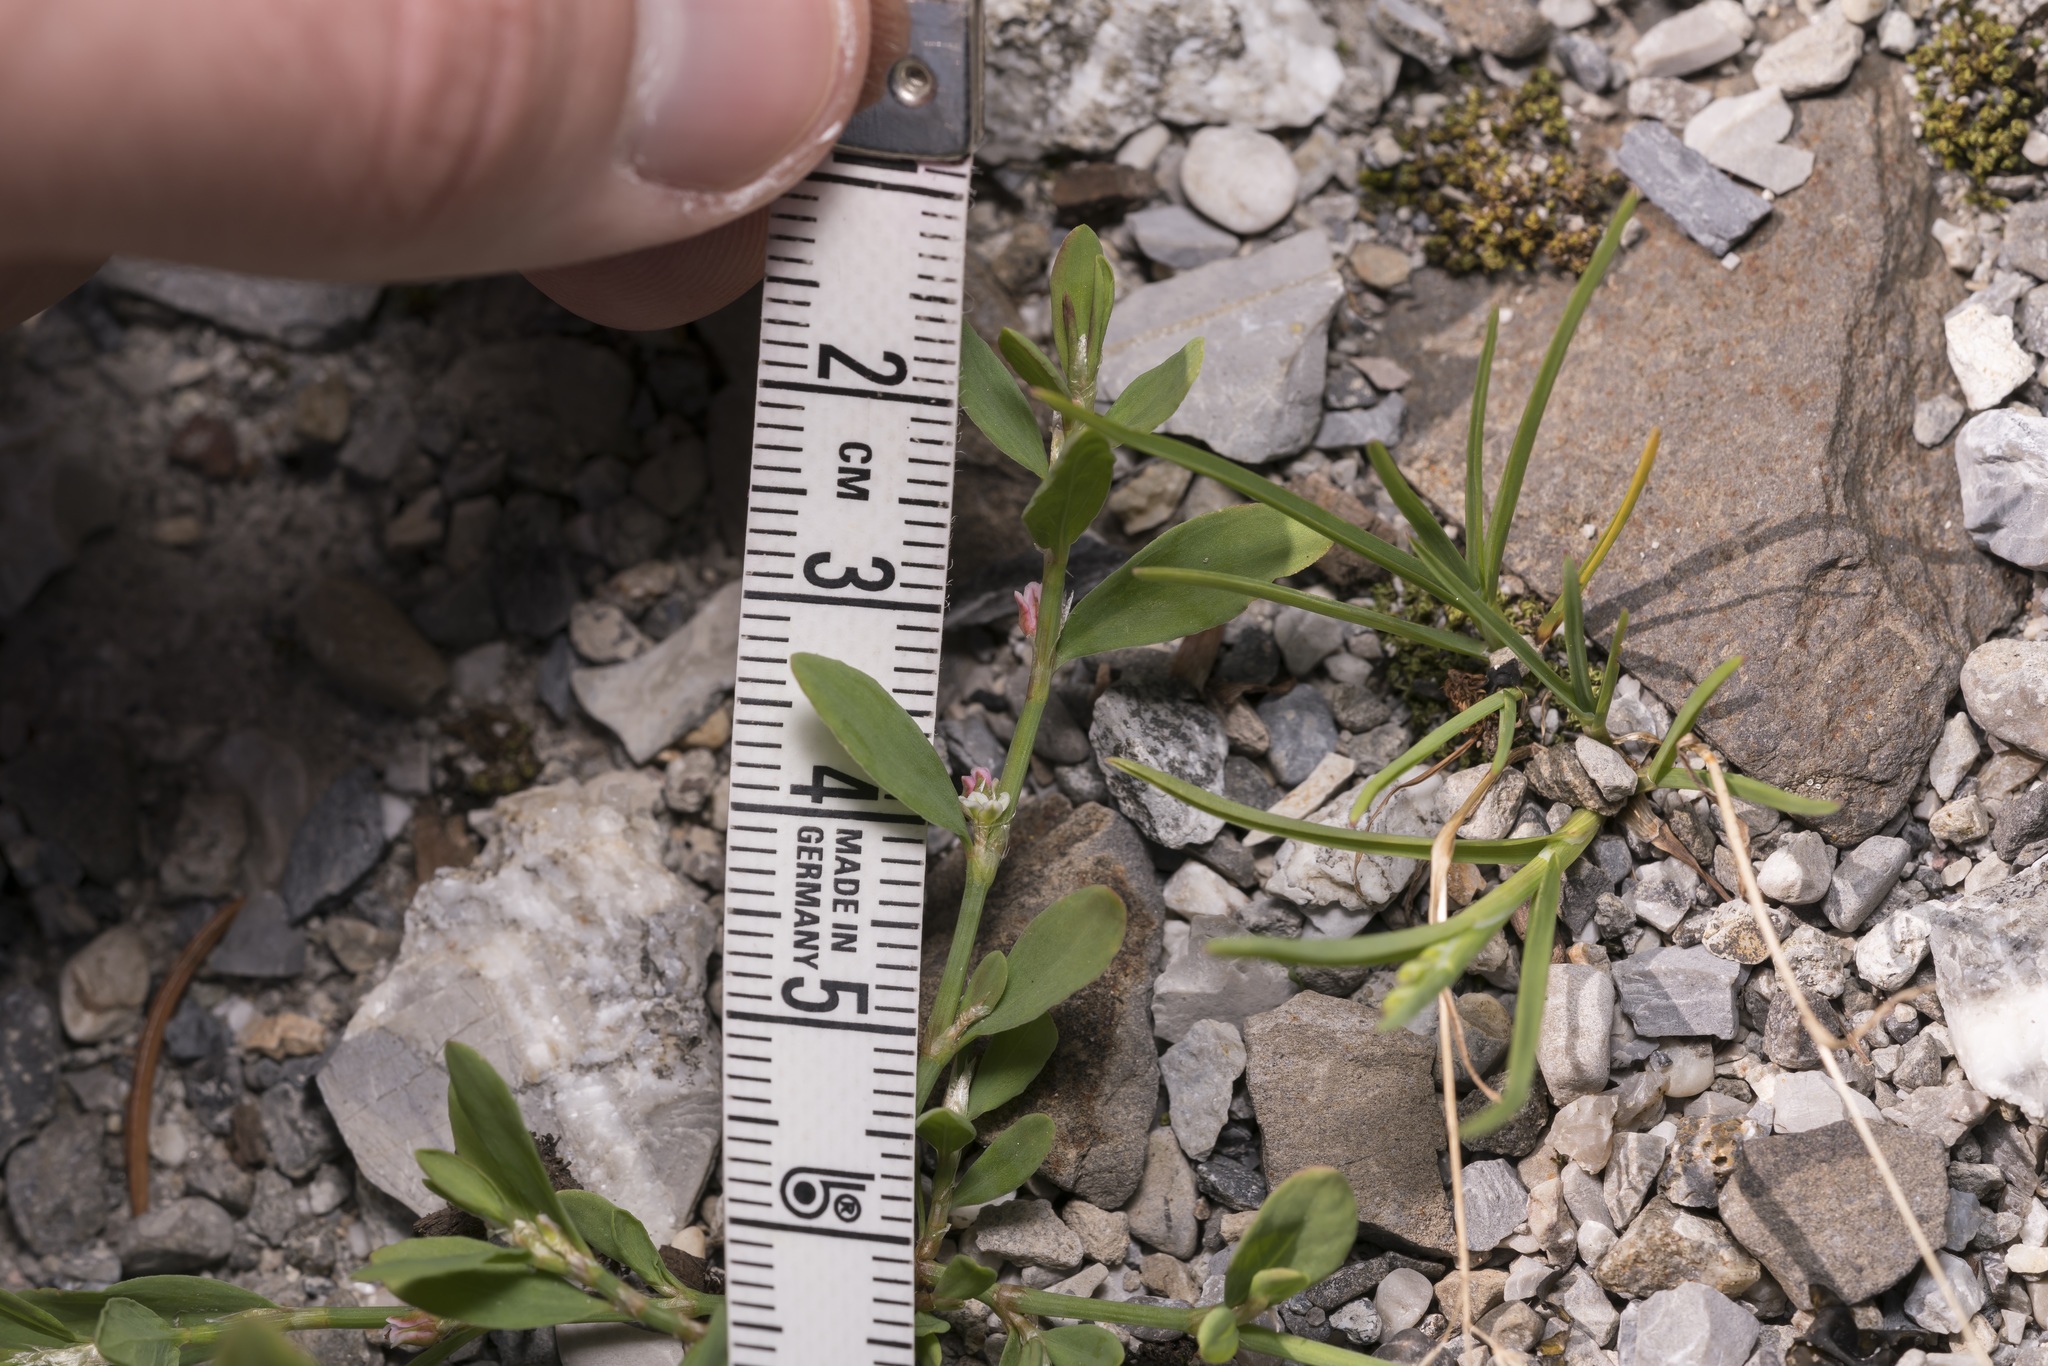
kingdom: Plantae
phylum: Tracheophyta
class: Magnoliopsida
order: Caryophyllales
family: Polygonaceae
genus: Polygonum
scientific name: Polygonum aviculare
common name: Prostrate knotweed
